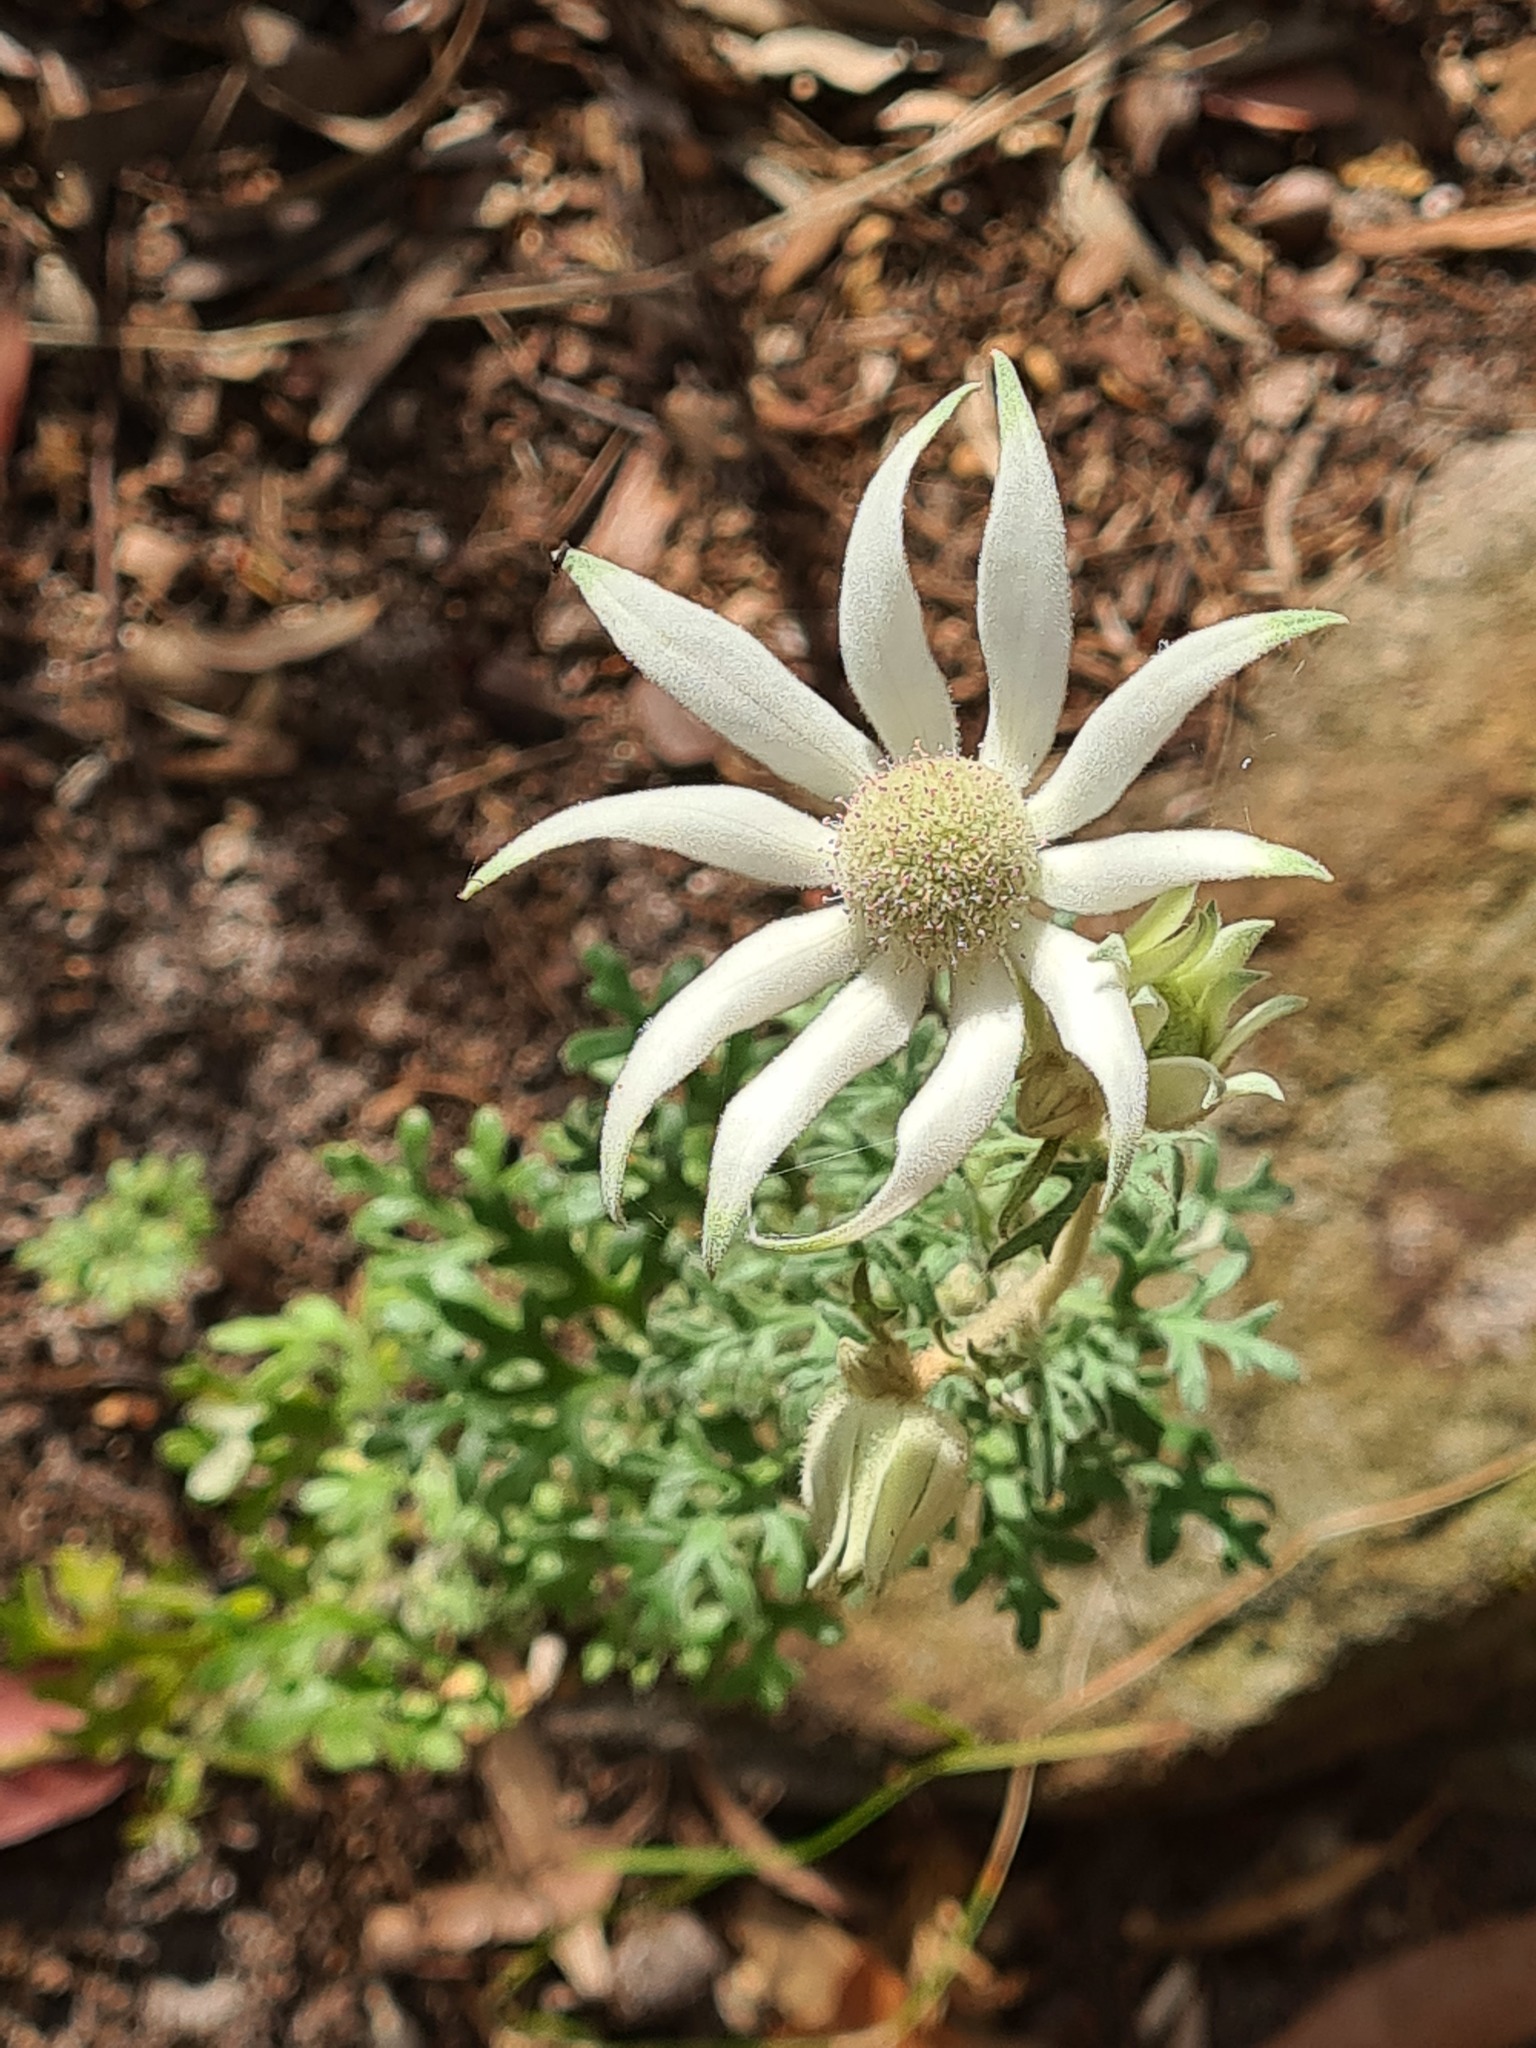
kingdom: Plantae
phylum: Tracheophyta
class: Magnoliopsida
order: Apiales
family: Apiaceae
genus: Actinotus
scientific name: Actinotus helianthi
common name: Flannel-flower
